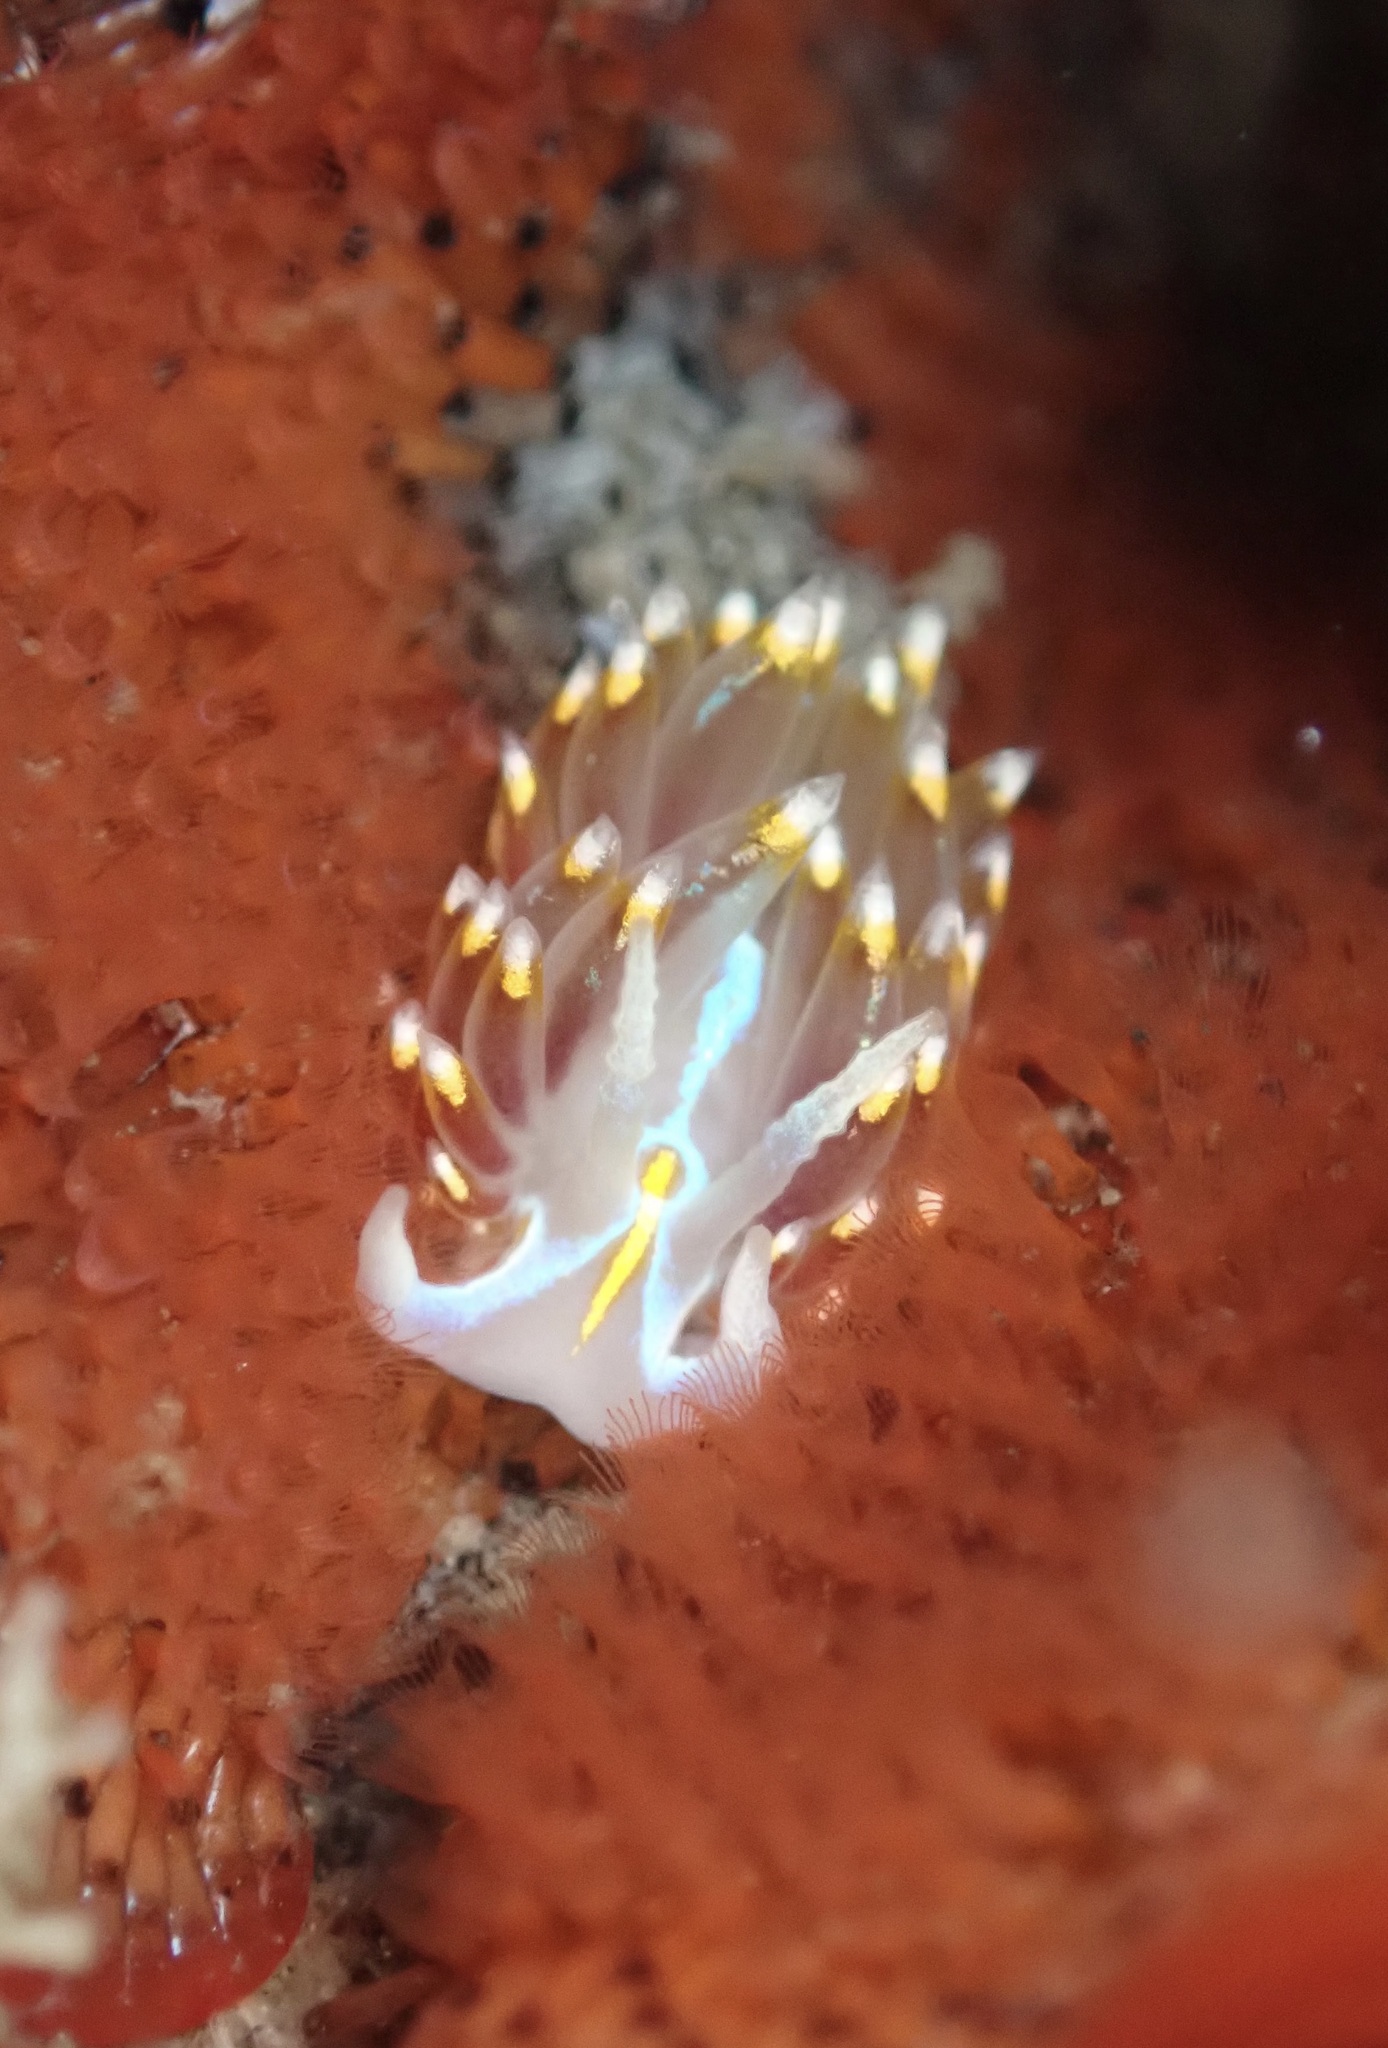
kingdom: Animalia
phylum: Mollusca
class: Gastropoda
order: Nudibranchia
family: Myrrhinidae
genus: Hermissenda
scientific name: Hermissenda opalescens
